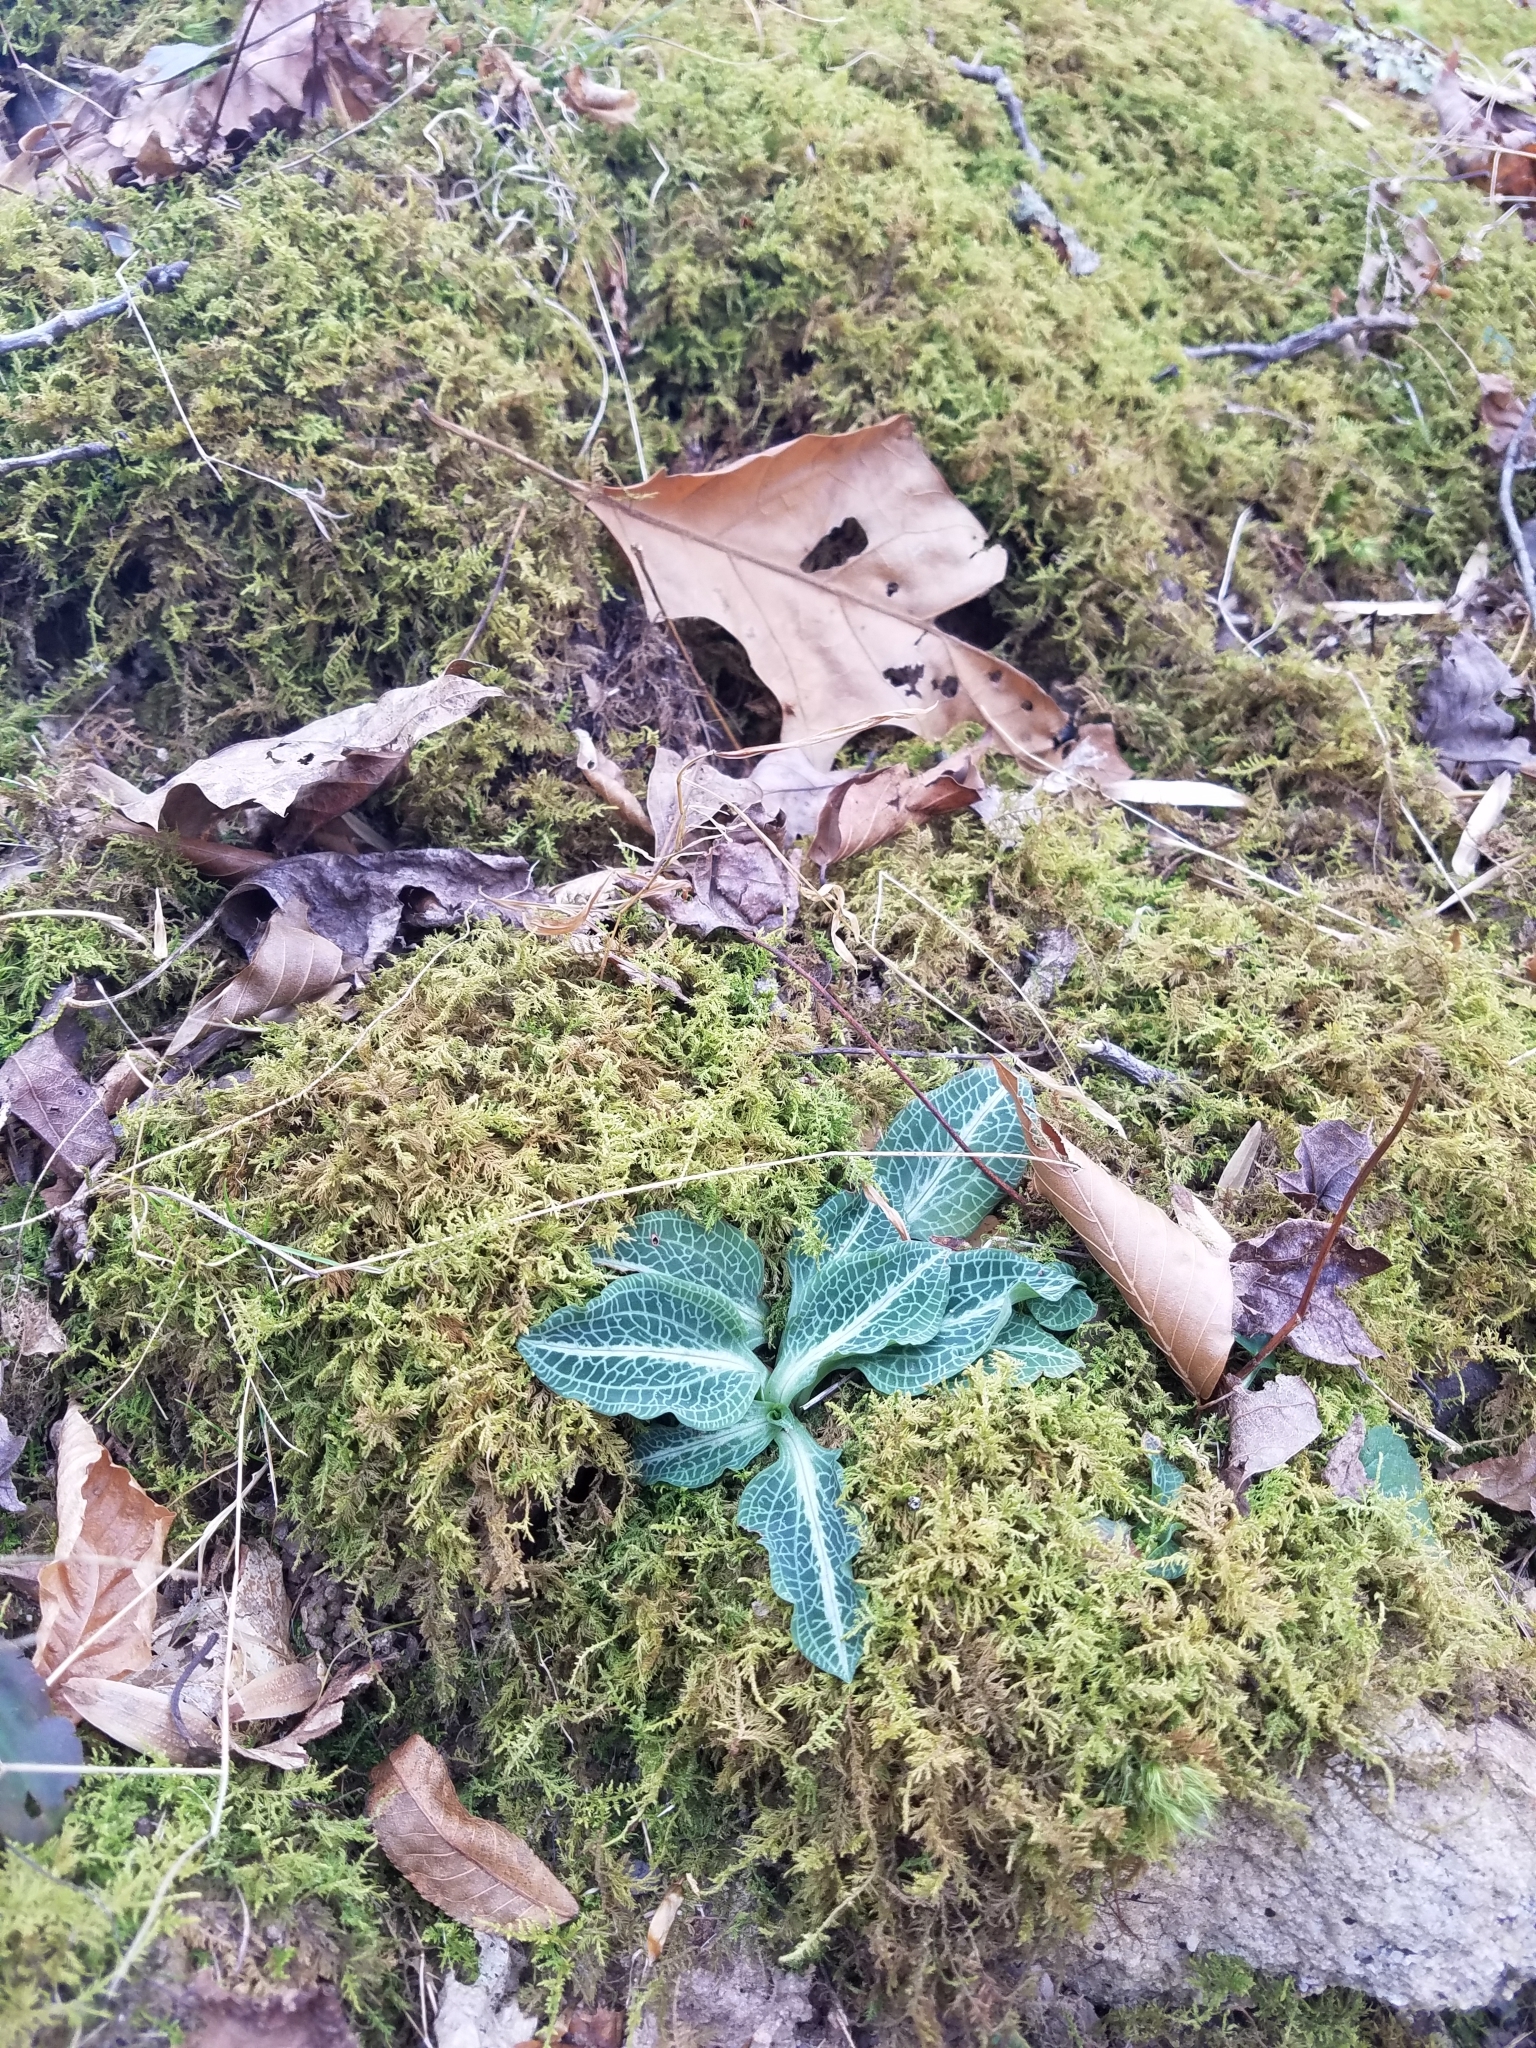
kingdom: Plantae
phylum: Tracheophyta
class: Liliopsida
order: Asparagales
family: Orchidaceae
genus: Goodyera
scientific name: Goodyera pubescens
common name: Downy rattlesnake-plantain
